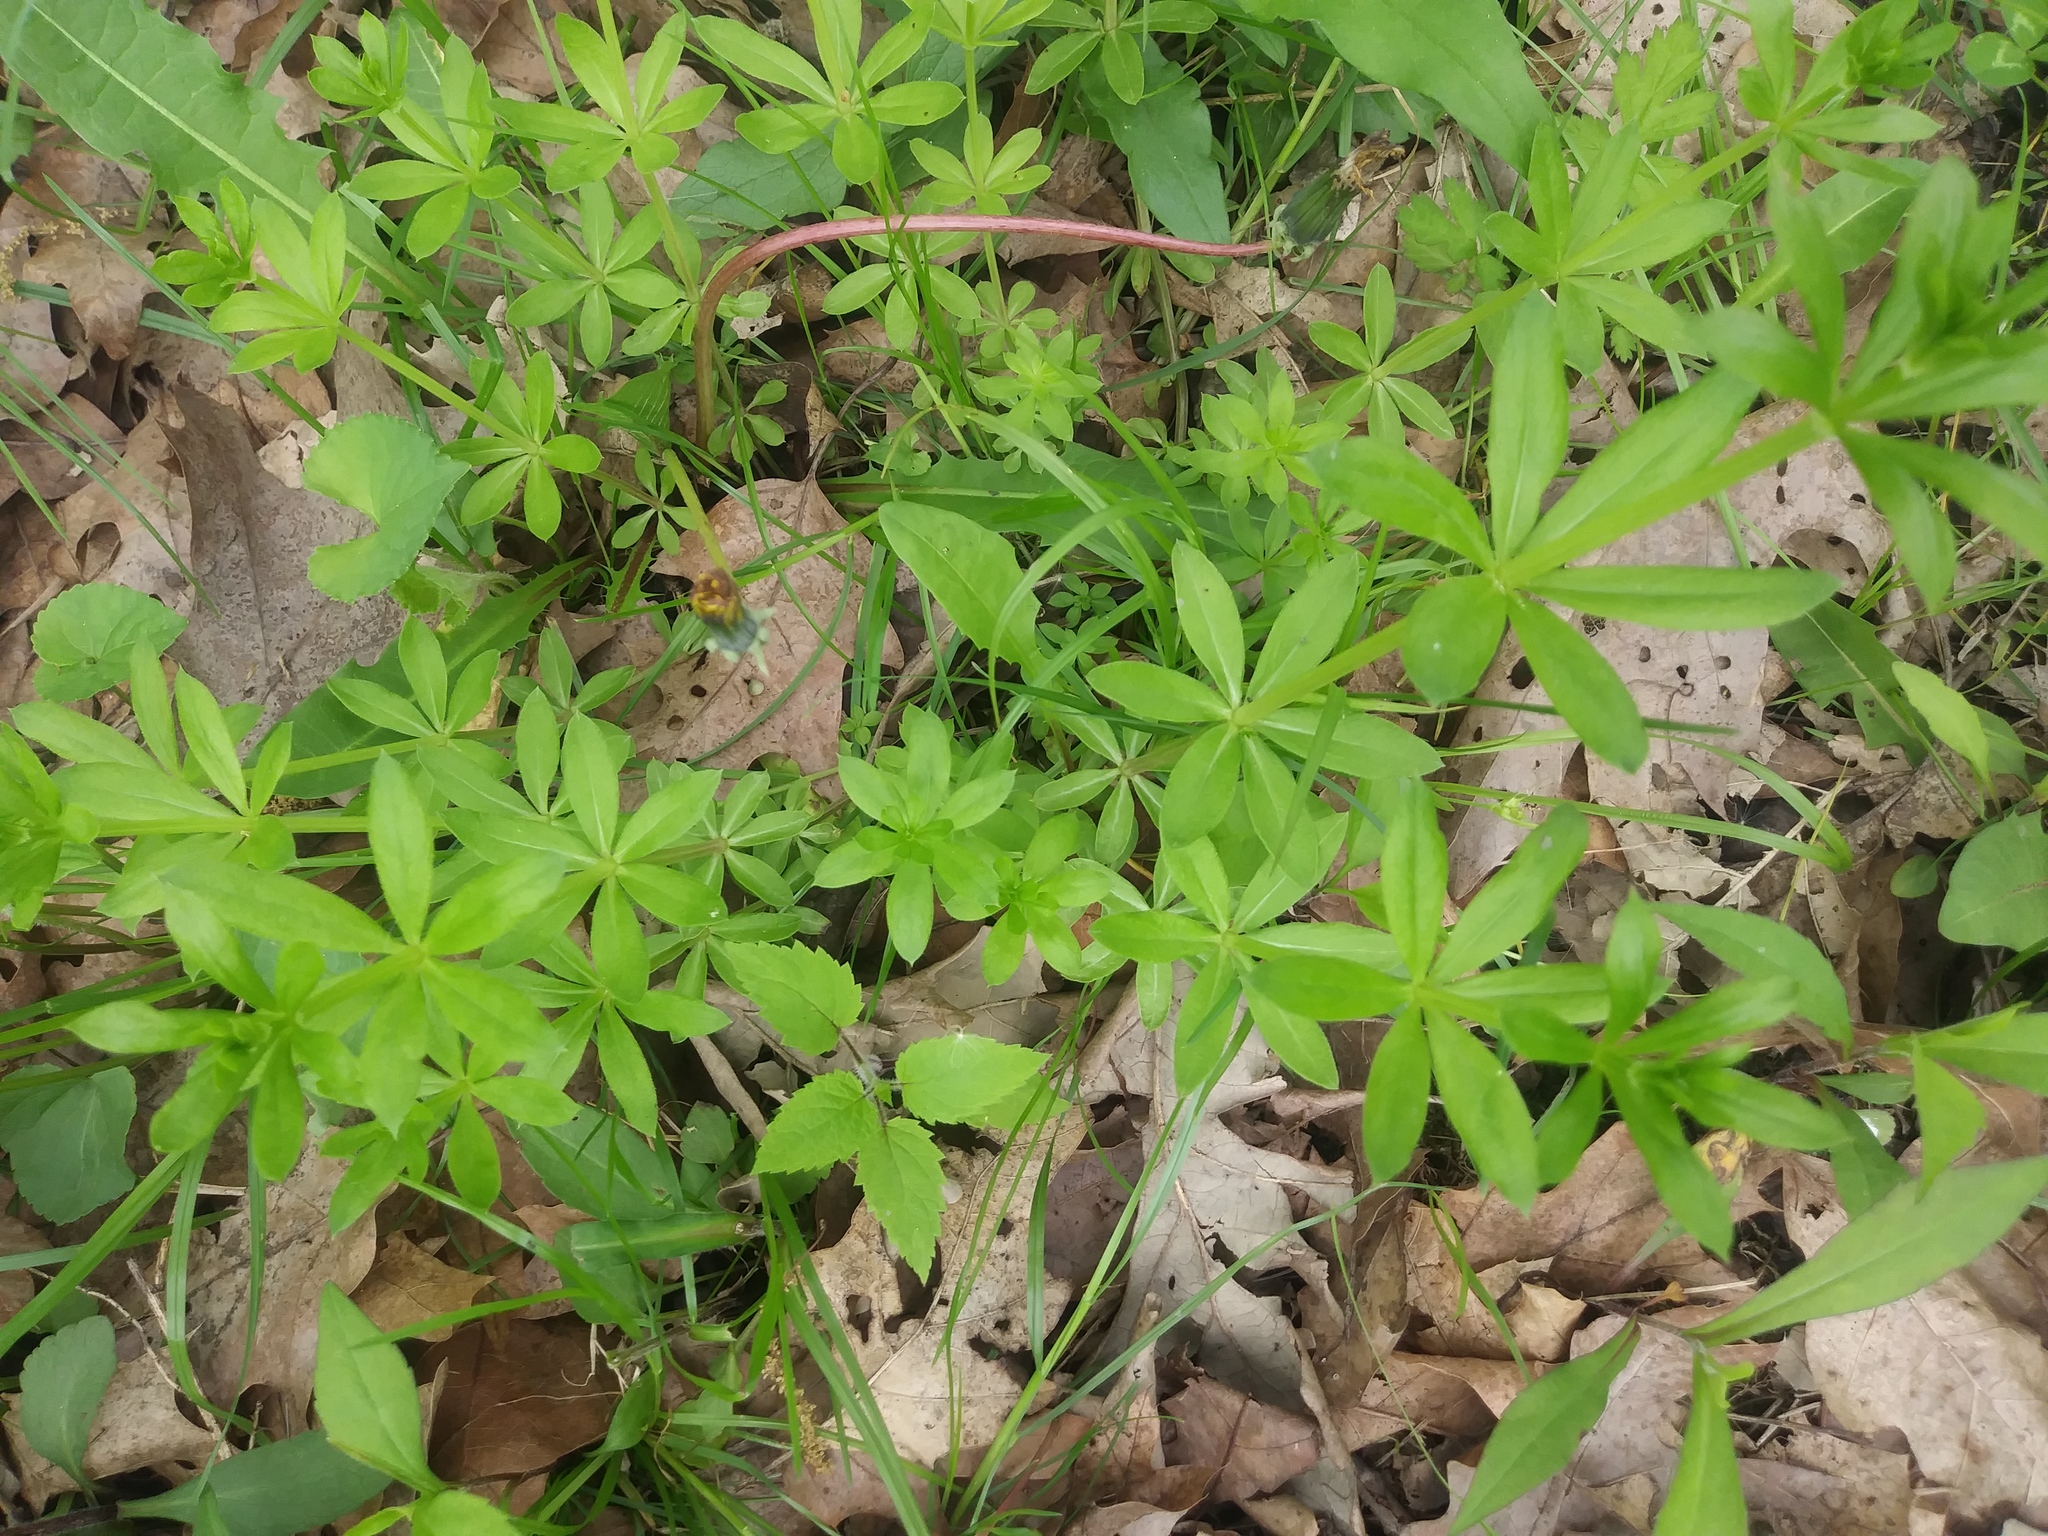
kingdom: Plantae
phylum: Tracheophyta
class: Magnoliopsida
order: Gentianales
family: Rubiaceae
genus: Galium
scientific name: Galium triflorum
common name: Fragrant bedstraw
